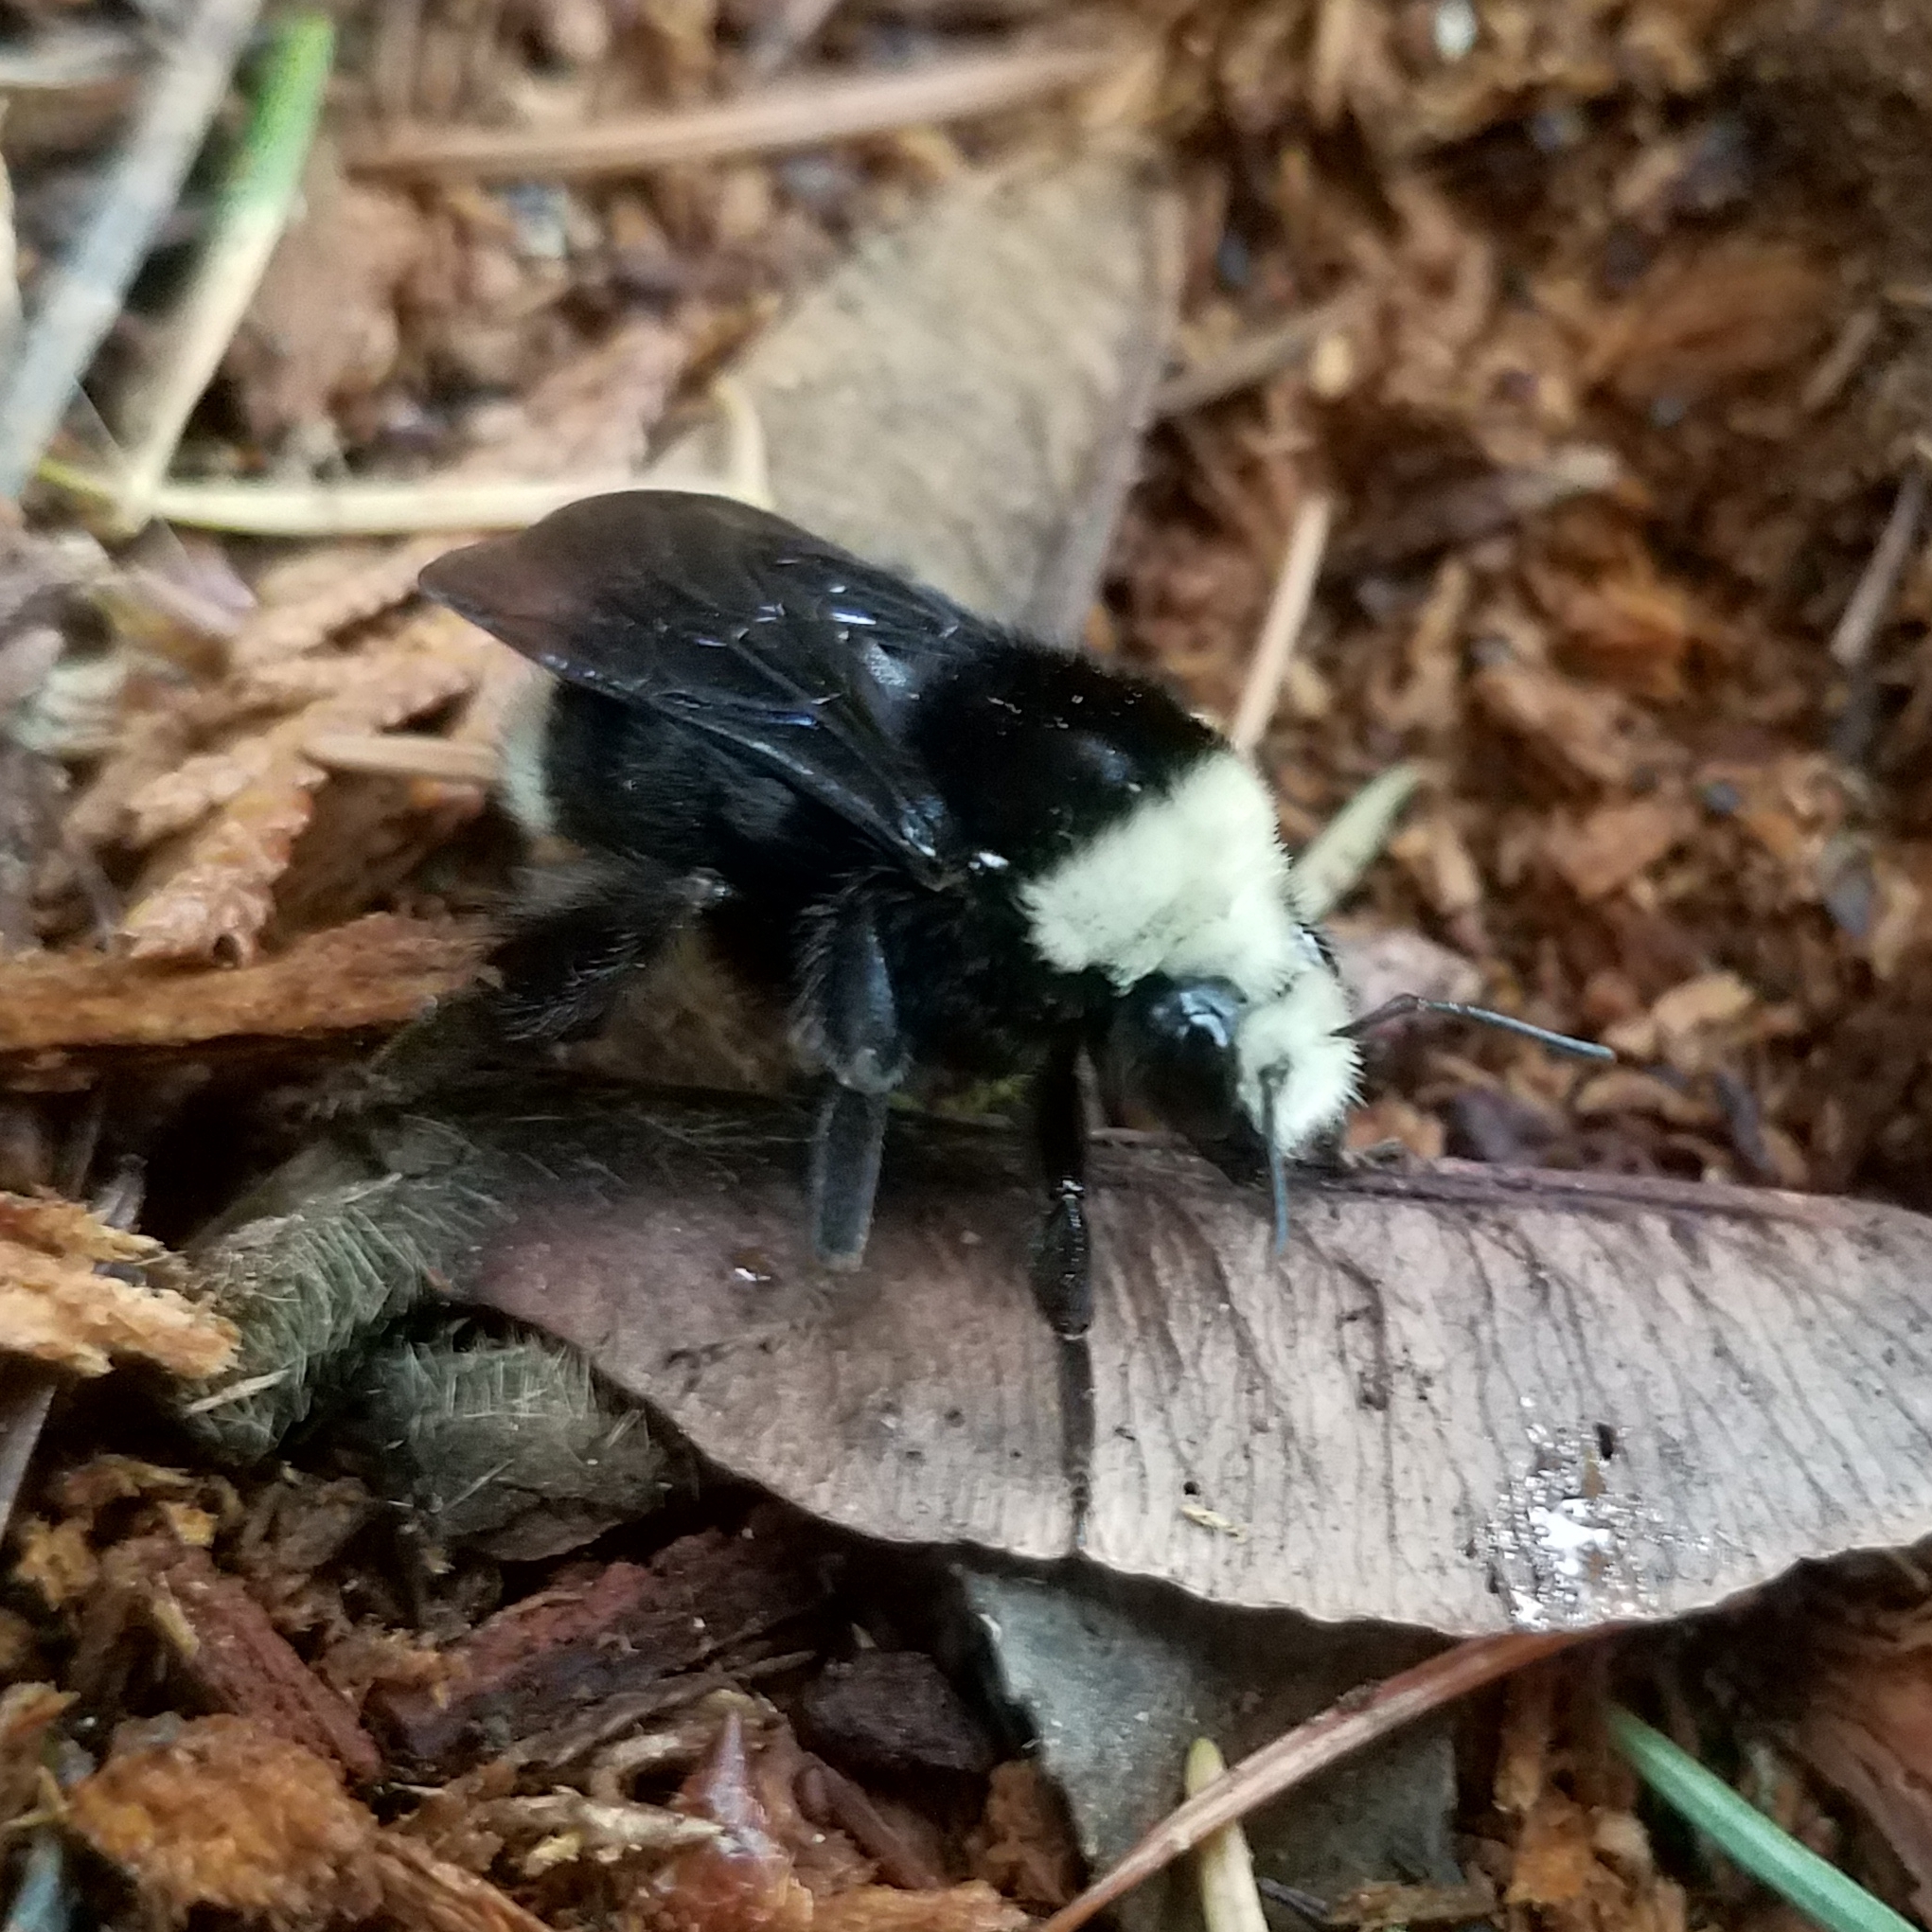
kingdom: Animalia
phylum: Arthropoda
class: Insecta
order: Hymenoptera
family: Apidae
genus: Bombus
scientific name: Bombus vosnesenskii
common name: Vosnesensky bumble bee
